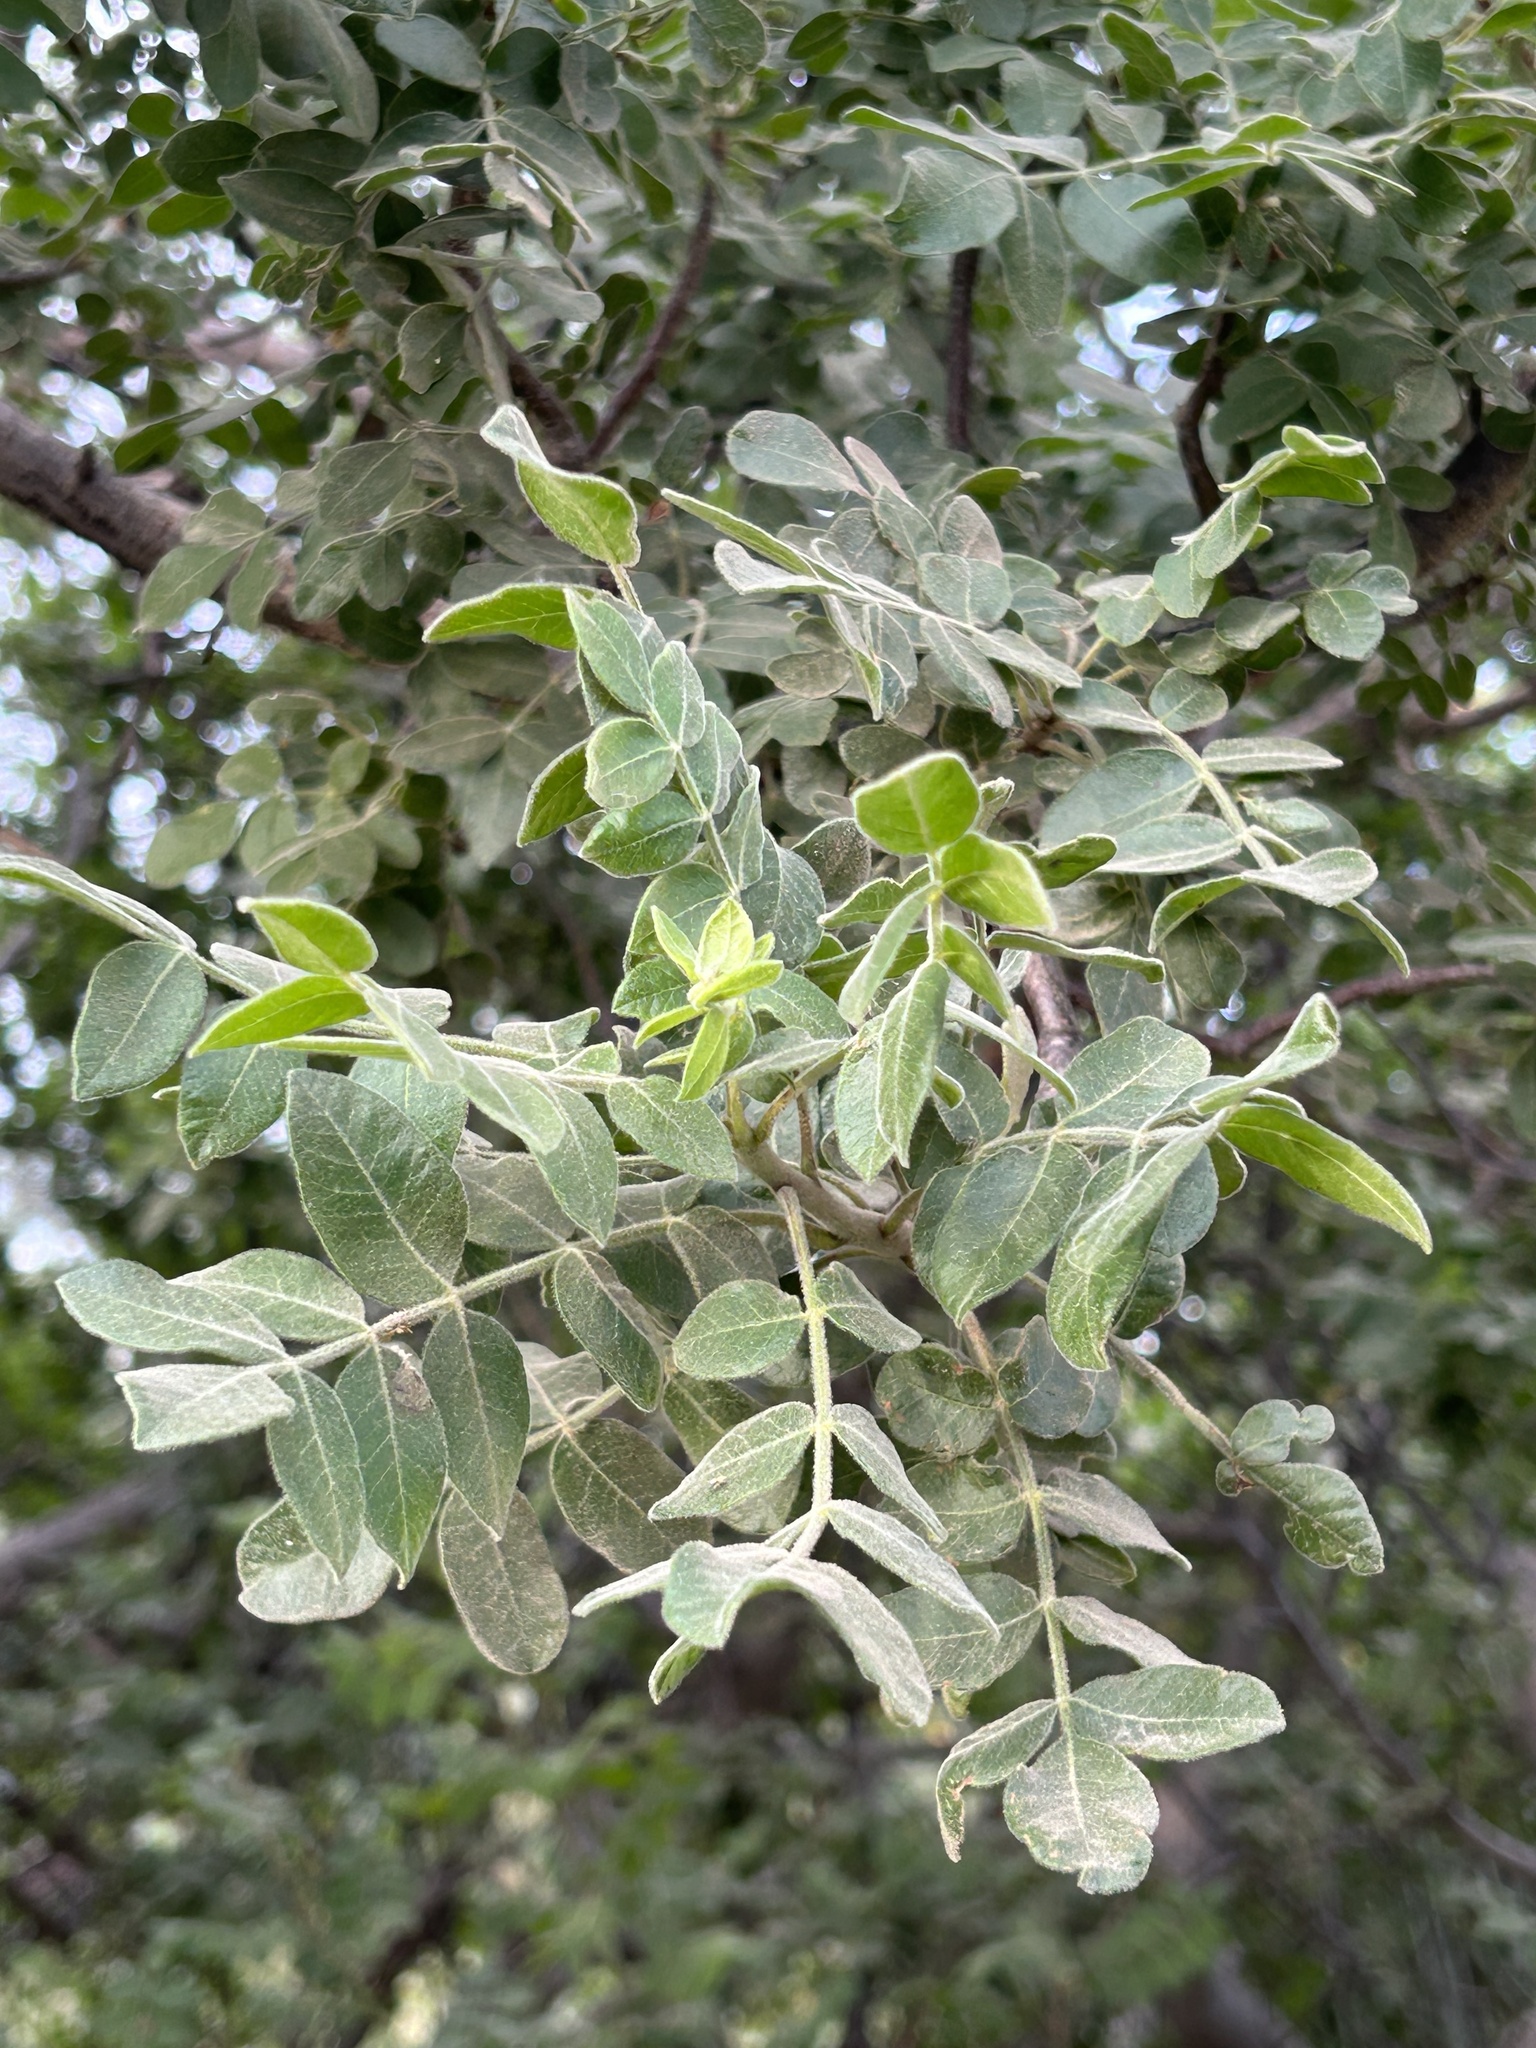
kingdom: Plantae
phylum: Tracheophyta
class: Magnoliopsida
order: Sapindales
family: Anacardiaceae
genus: Cyrtocarpa
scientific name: Cyrtocarpa edulis
